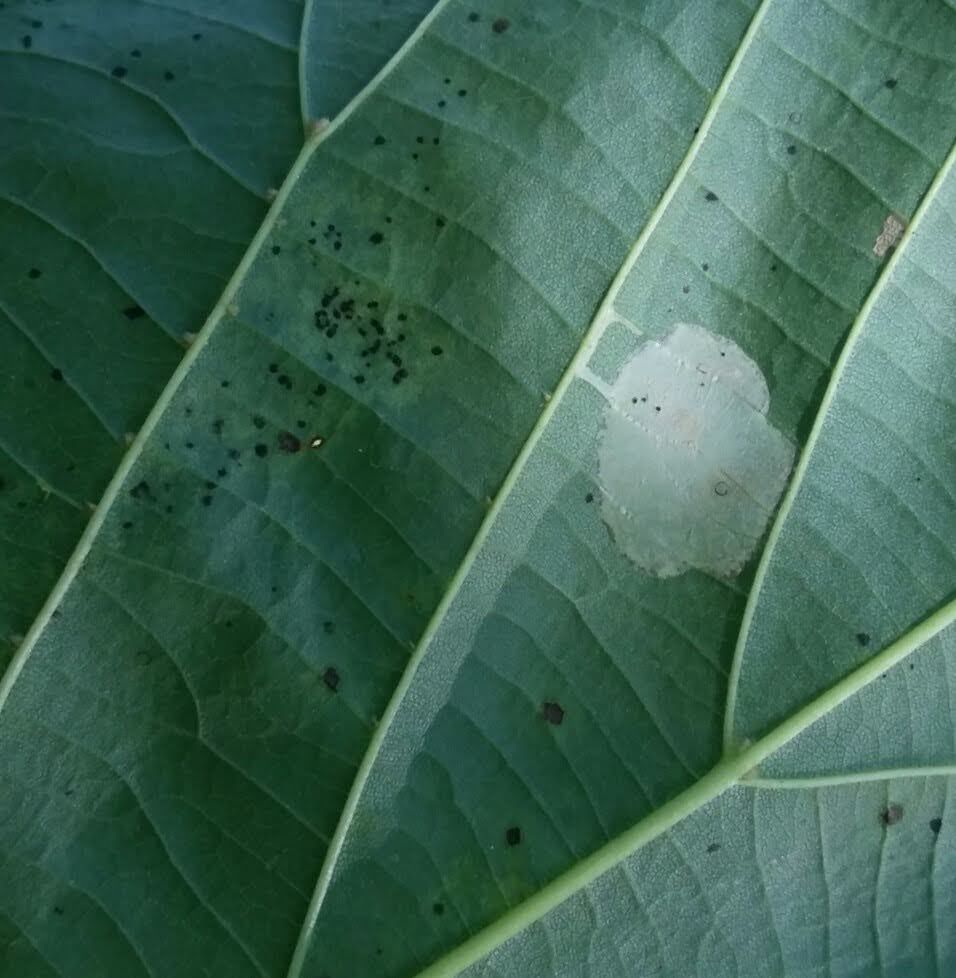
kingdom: Animalia
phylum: Arthropoda
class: Insecta
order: Lepidoptera
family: Gracillariidae
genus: Phyllonorycter
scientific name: Phyllonorycter lucetiella
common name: Basswood miner moth
